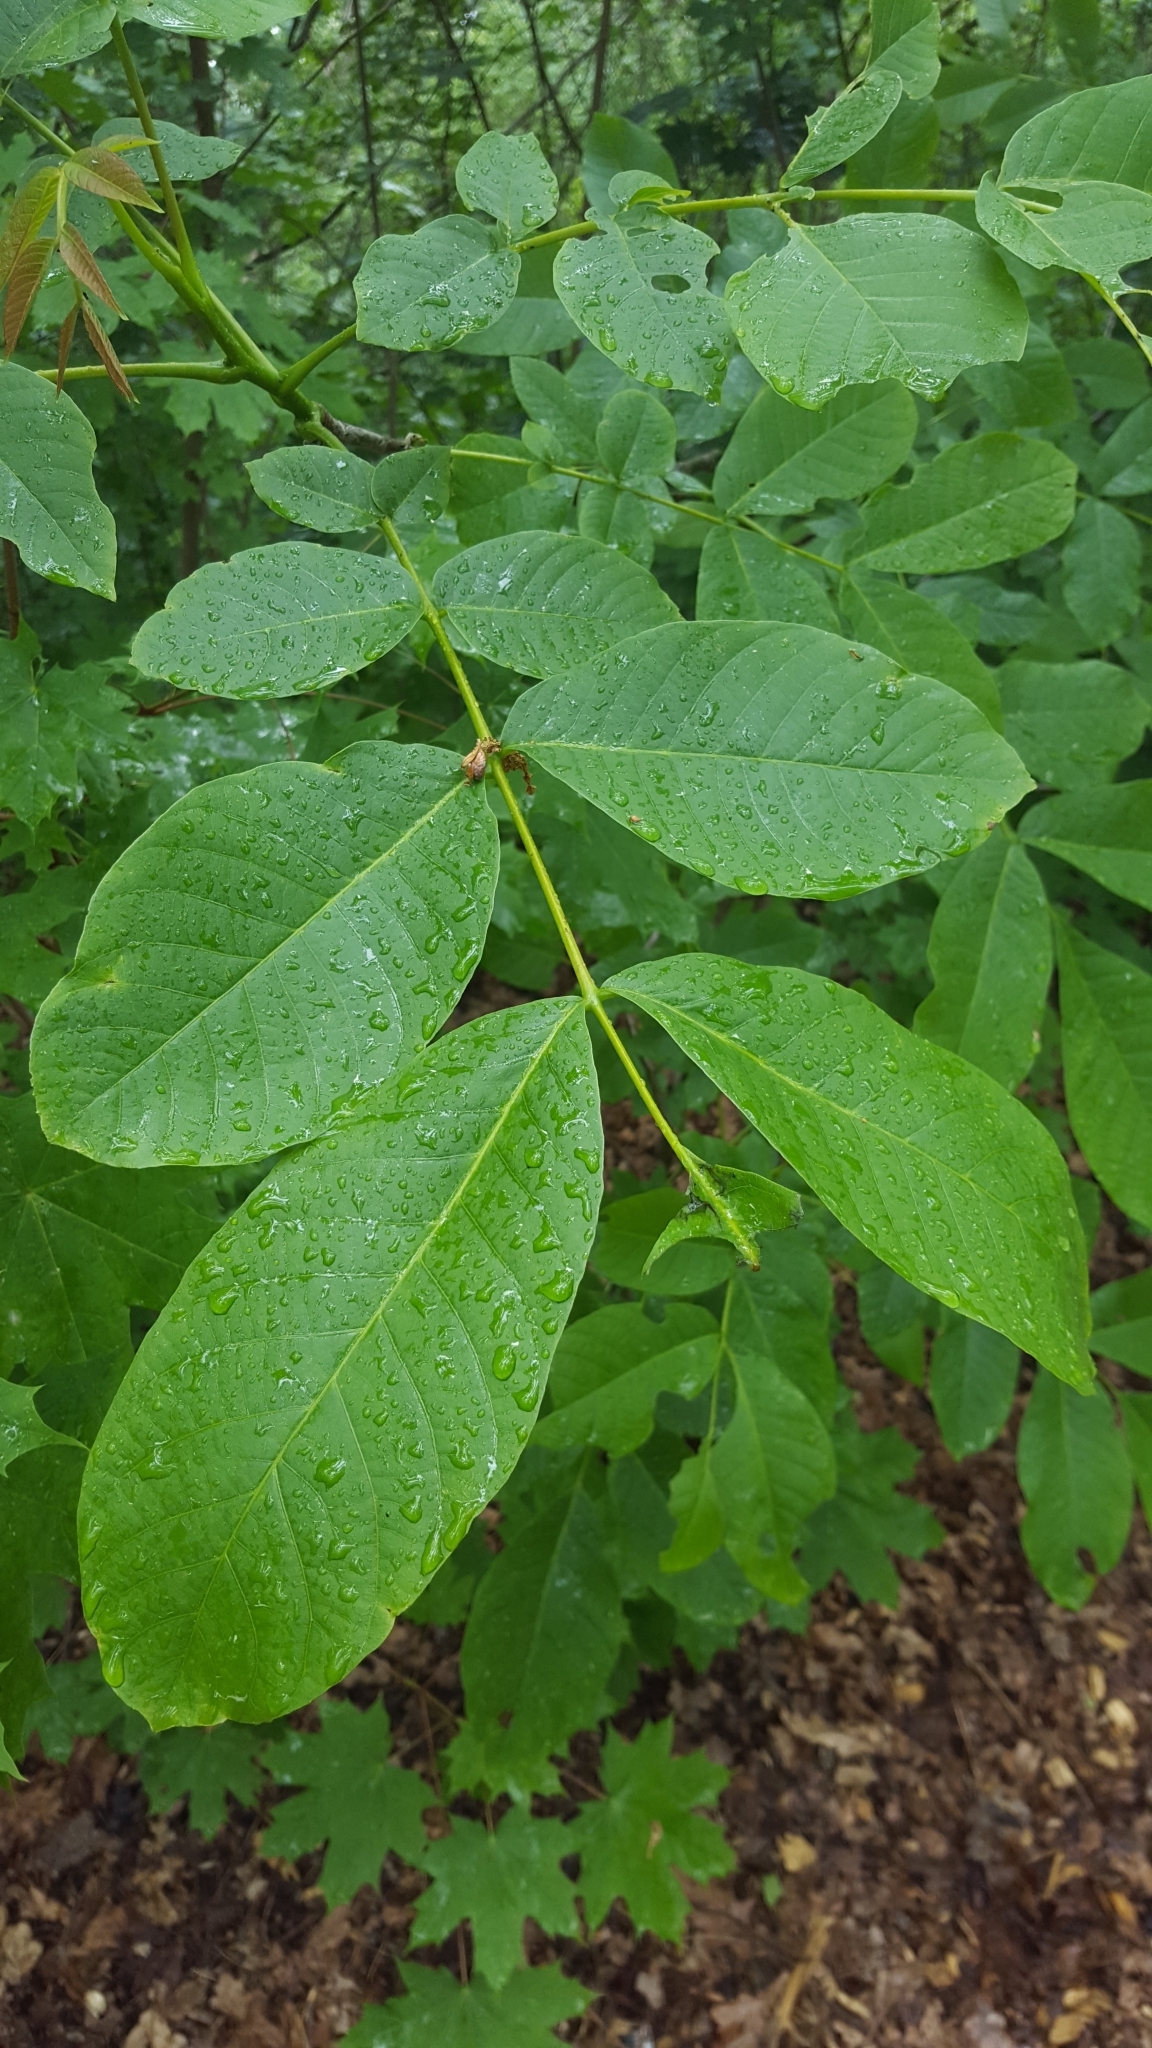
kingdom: Plantae
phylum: Tracheophyta
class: Magnoliopsida
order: Fagales
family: Juglandaceae
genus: Juglans
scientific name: Juglans regia
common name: Walnut
